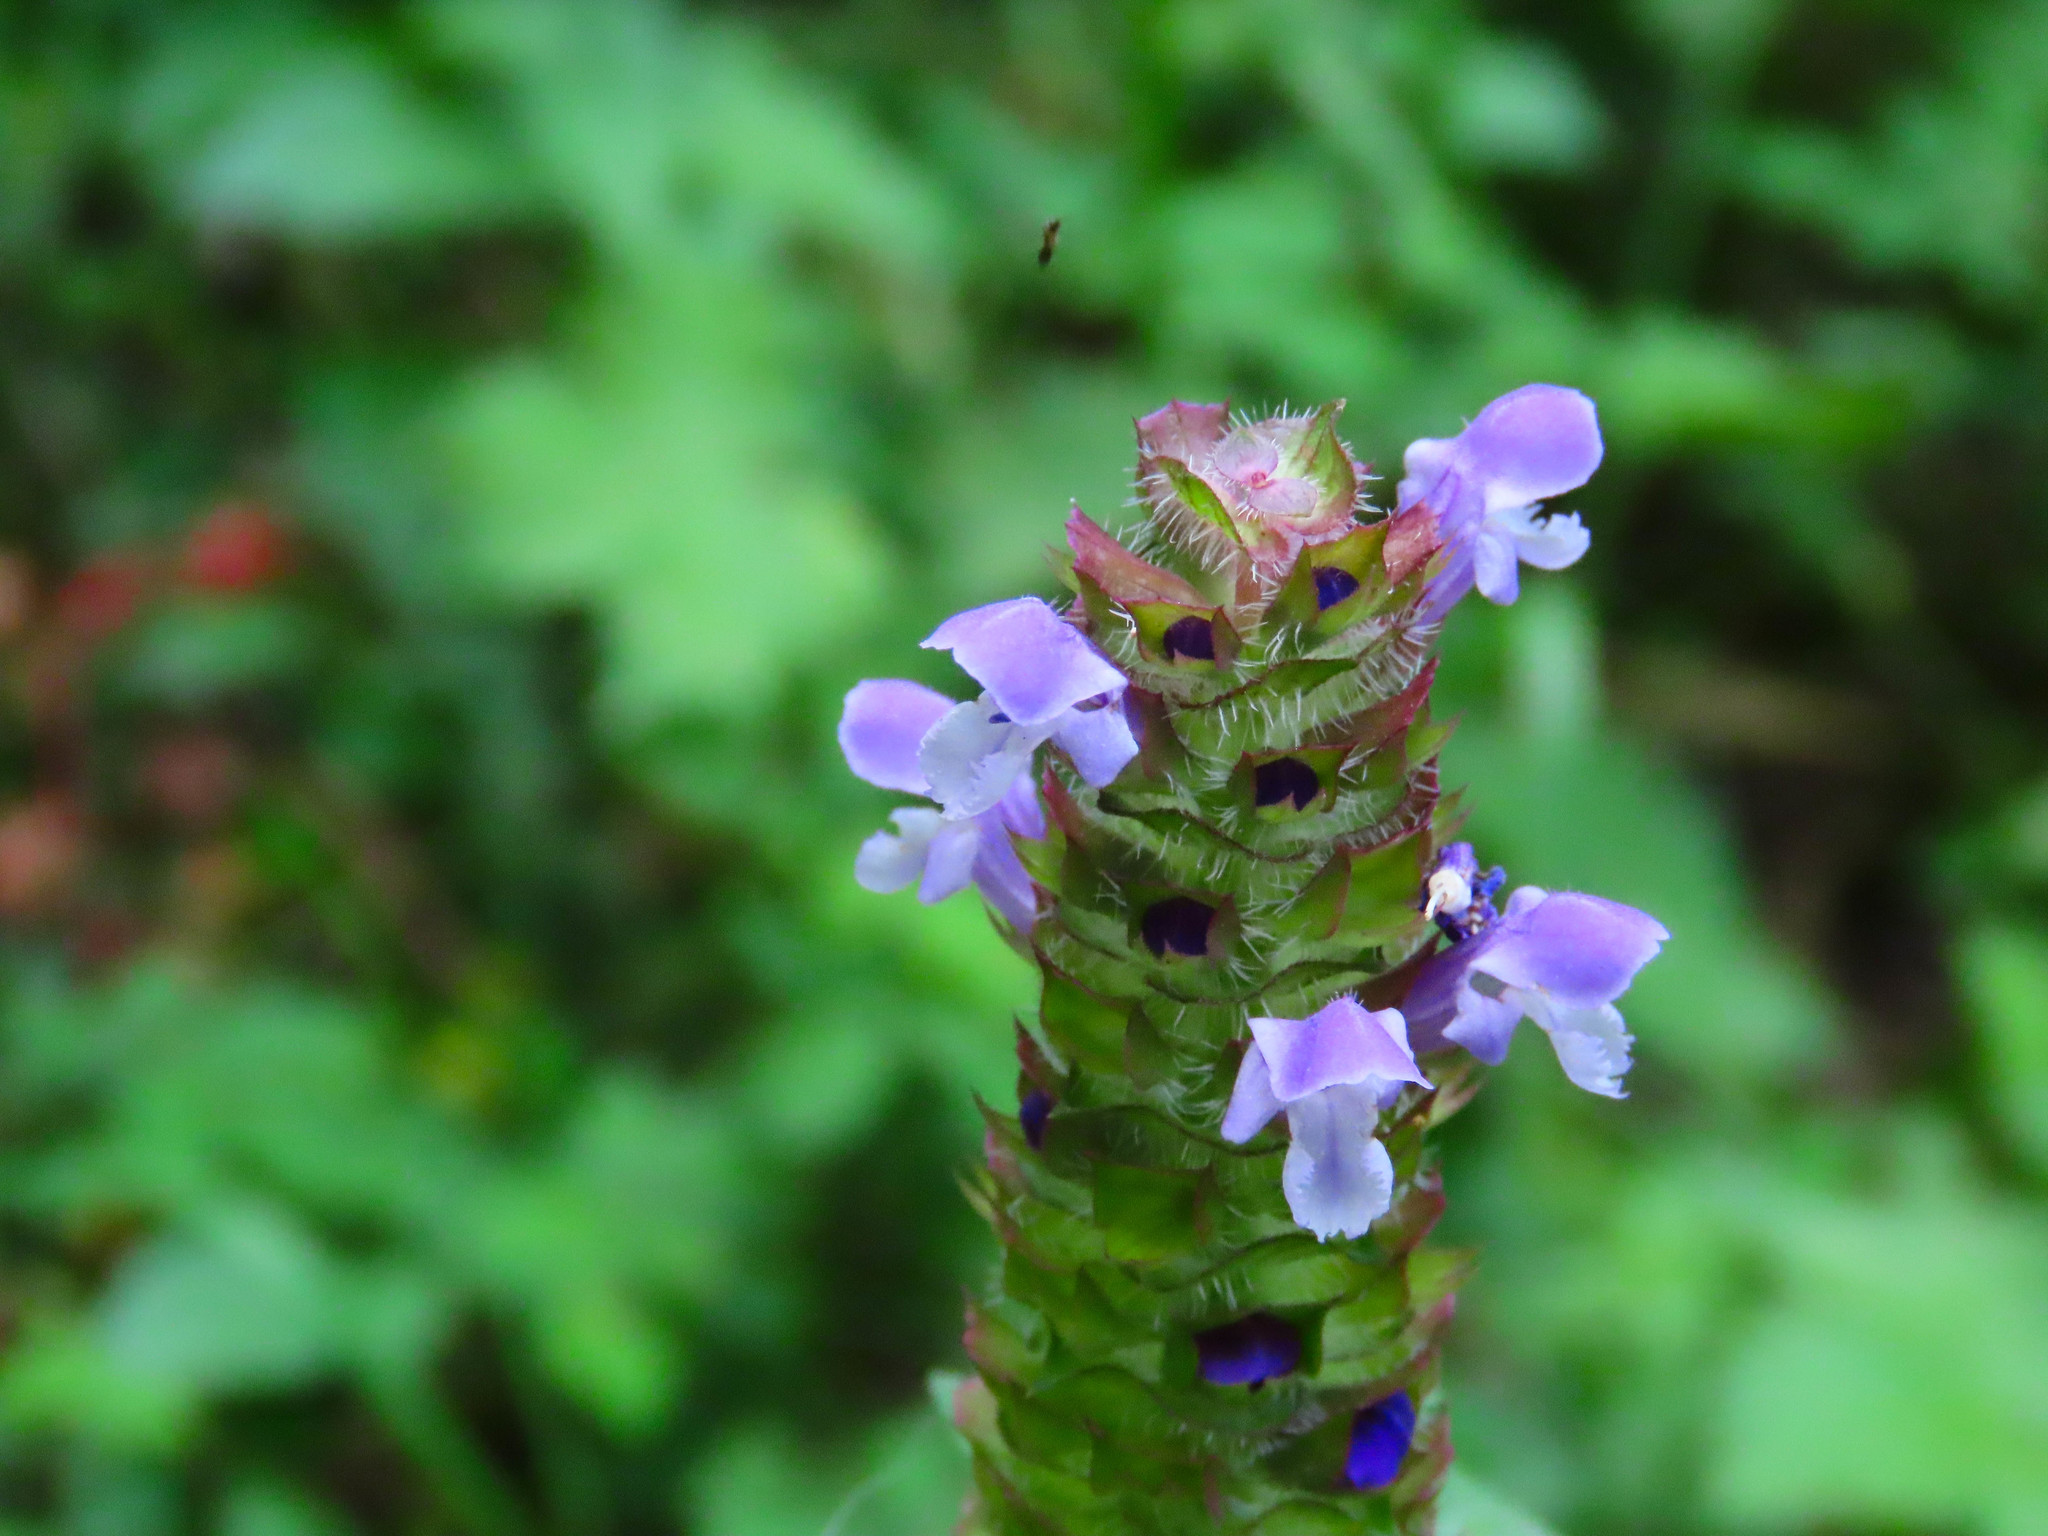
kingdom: Plantae
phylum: Tracheophyta
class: Magnoliopsida
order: Lamiales
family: Lamiaceae
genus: Prunella
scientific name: Prunella vulgaris
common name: Heal-all
